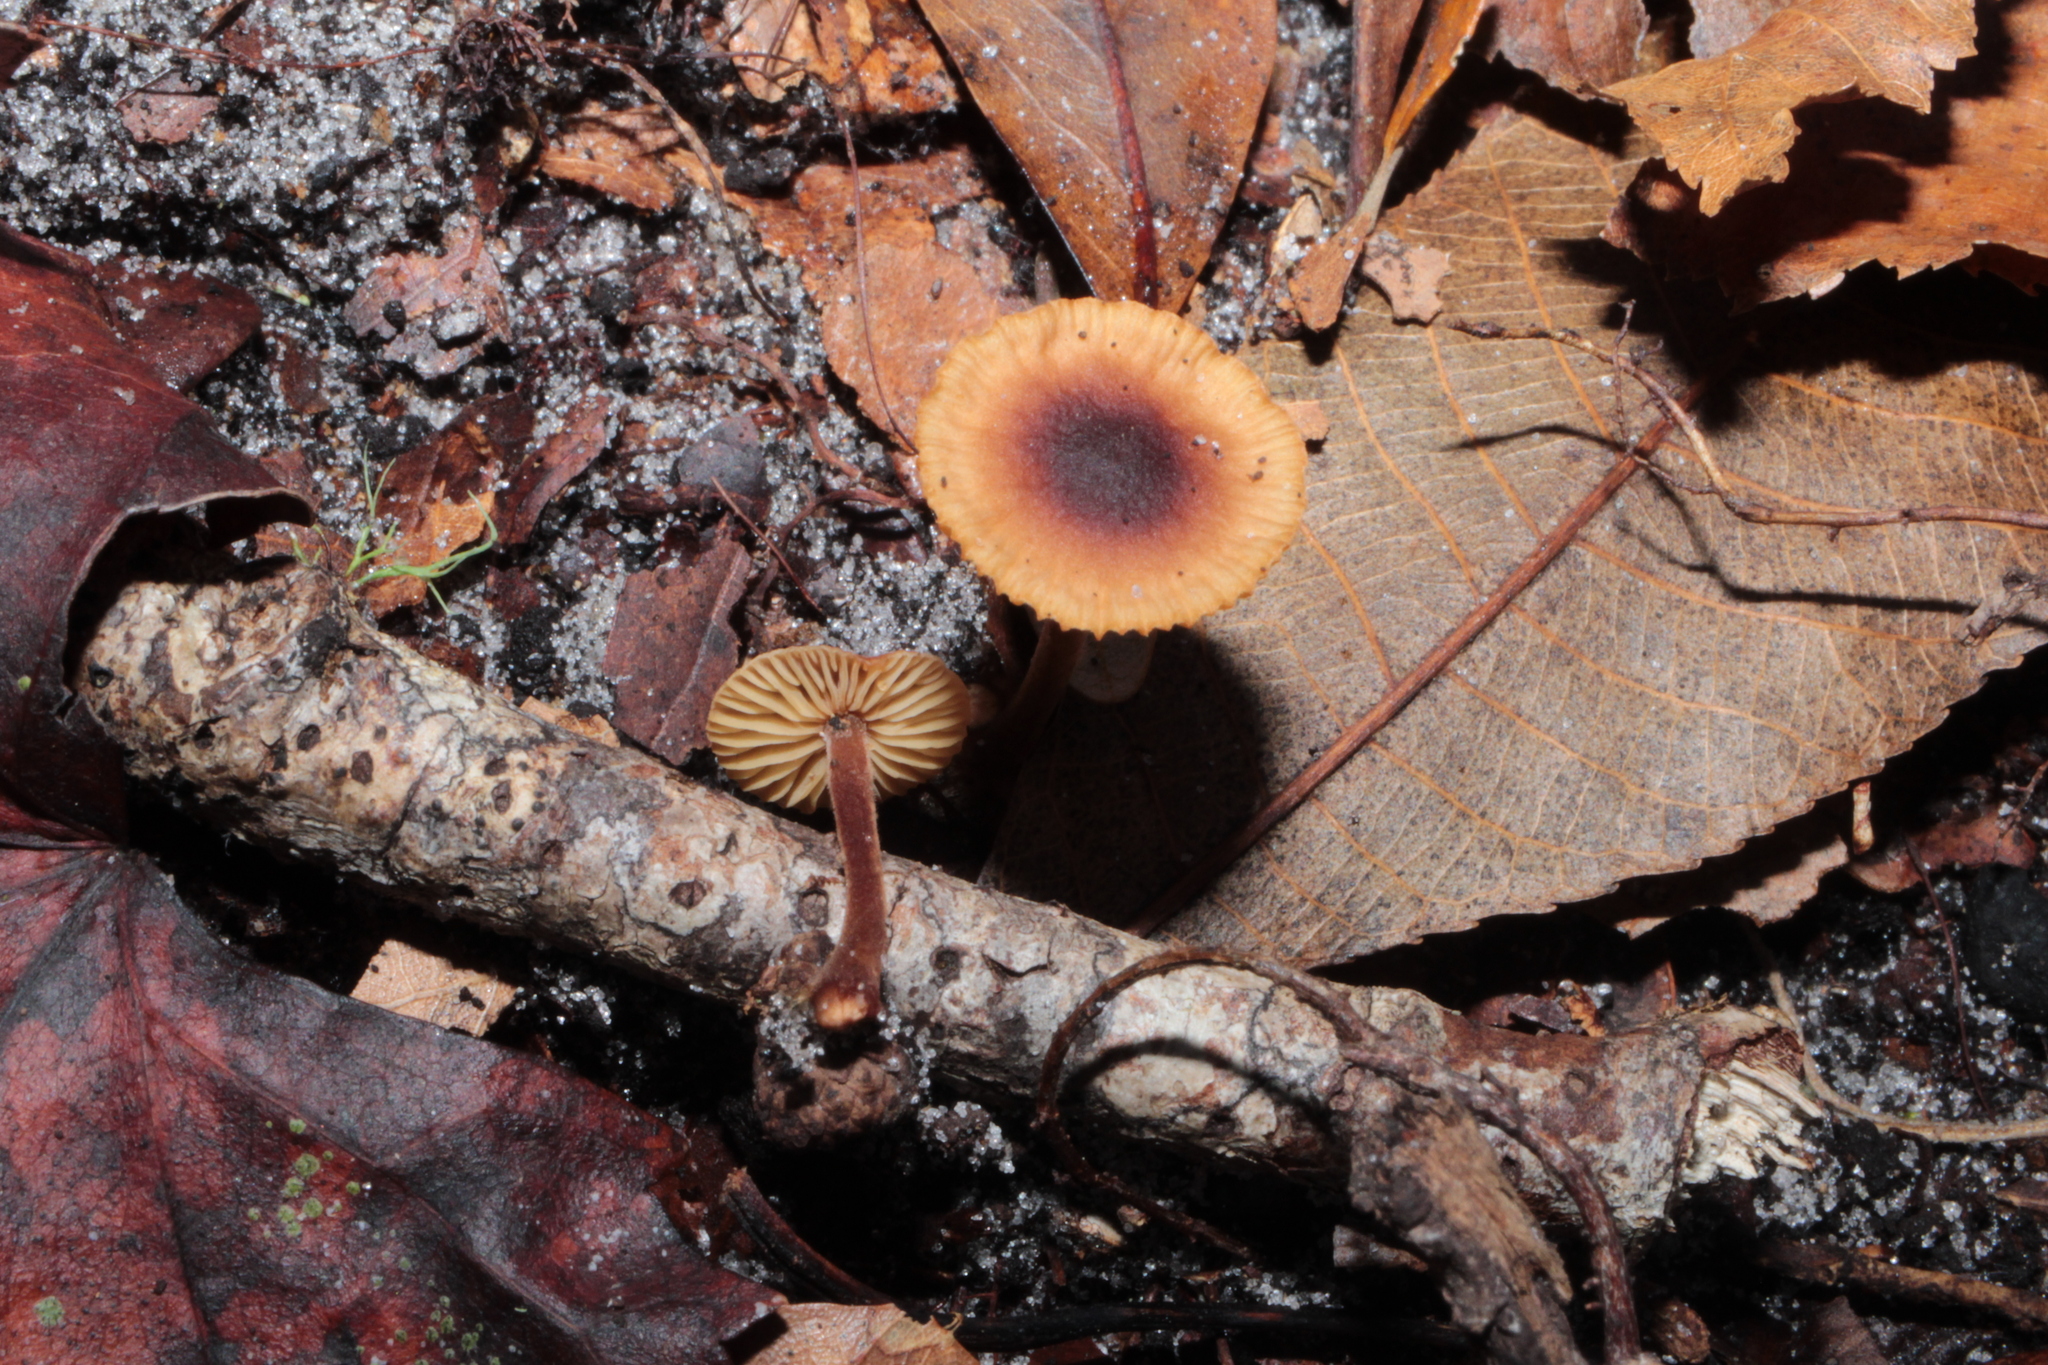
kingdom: Fungi
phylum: Basidiomycota
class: Agaricomycetes
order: Agaricales
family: Mycenaceae
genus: Xeromphalina
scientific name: Xeromphalina tenuipes
